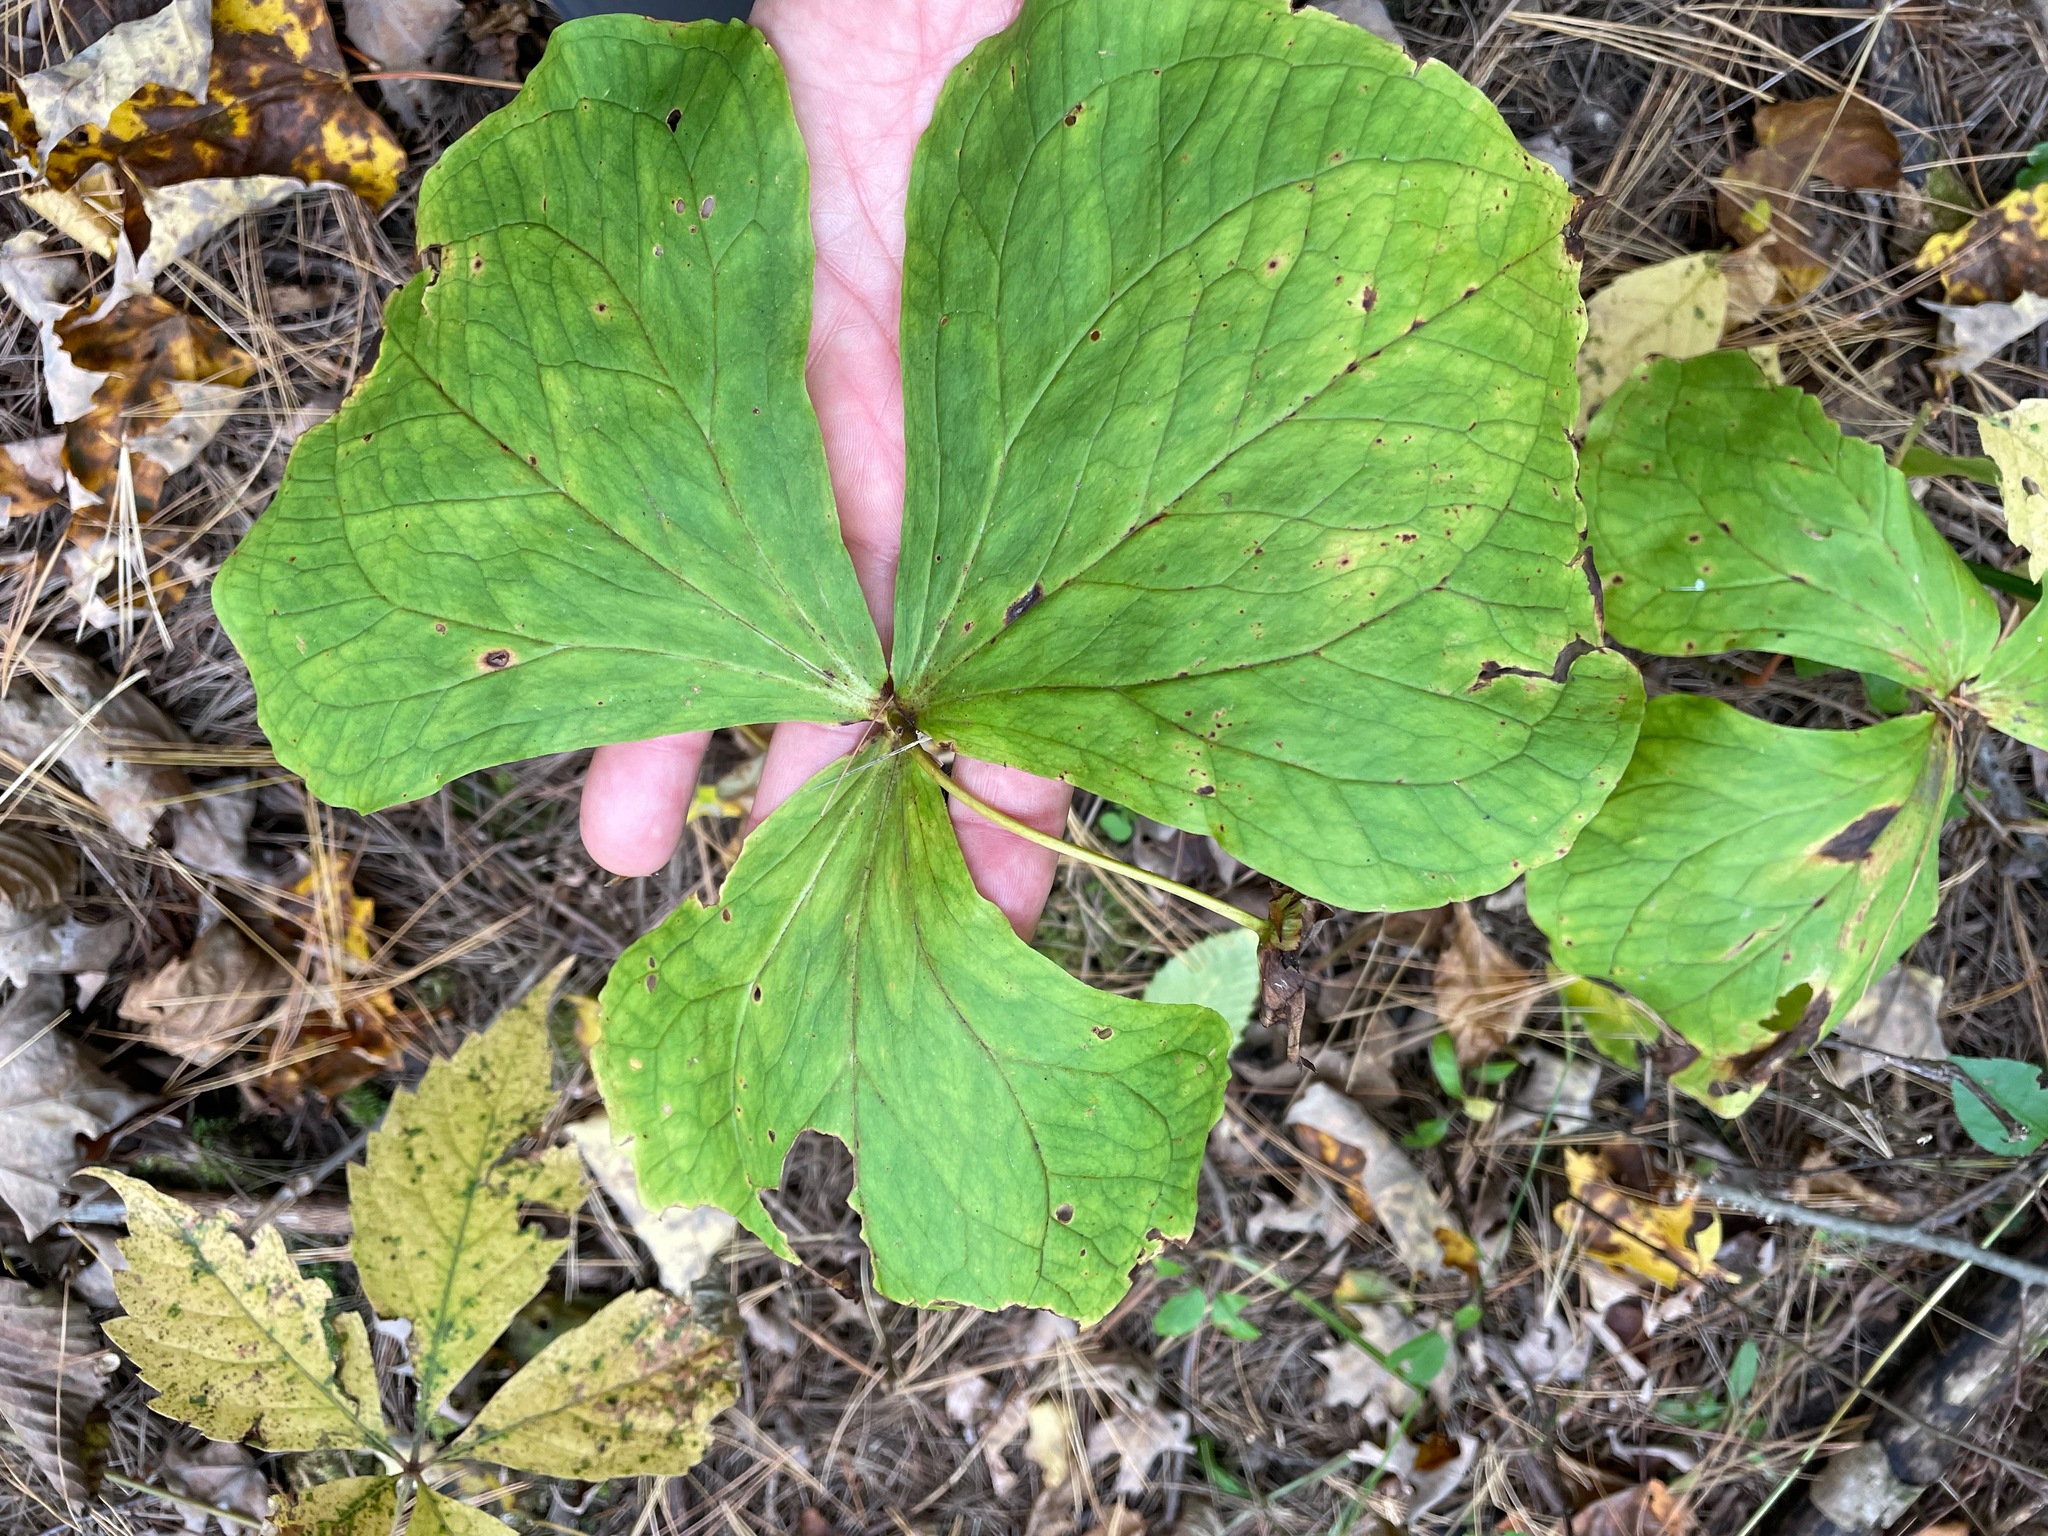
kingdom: Plantae
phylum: Tracheophyta
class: Liliopsida
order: Liliales
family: Melanthiaceae
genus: Trillium
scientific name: Trillium erectum
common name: Purple trillium
